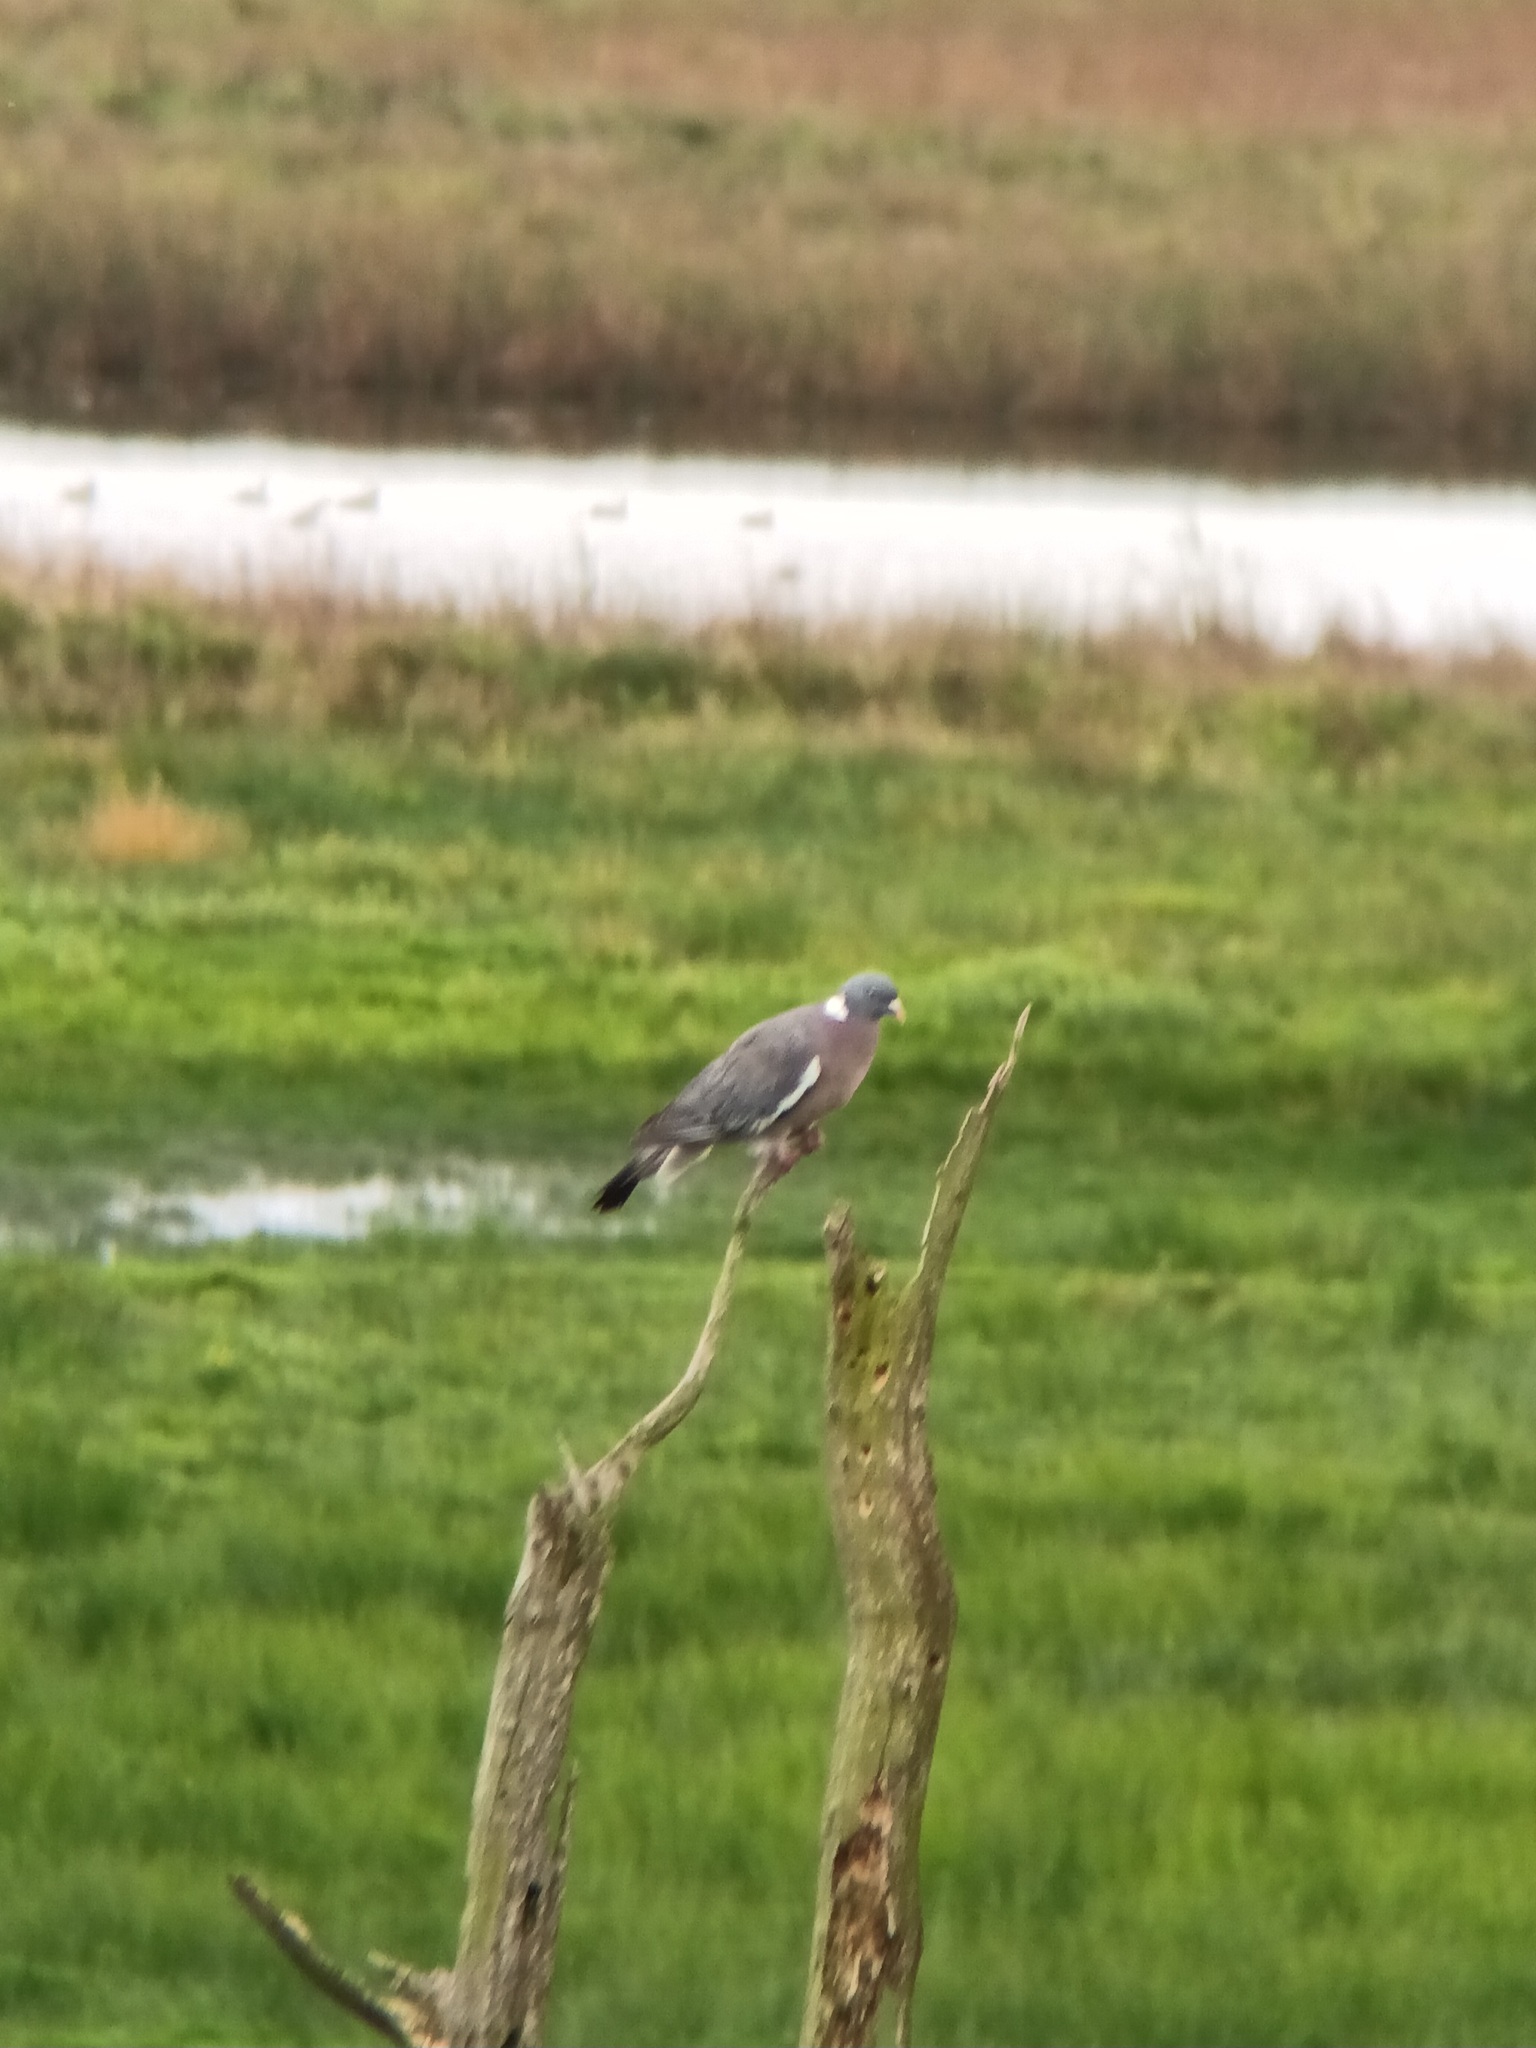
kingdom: Animalia
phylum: Chordata
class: Aves
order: Columbiformes
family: Columbidae
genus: Columba
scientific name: Columba palumbus
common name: Common wood pigeon
